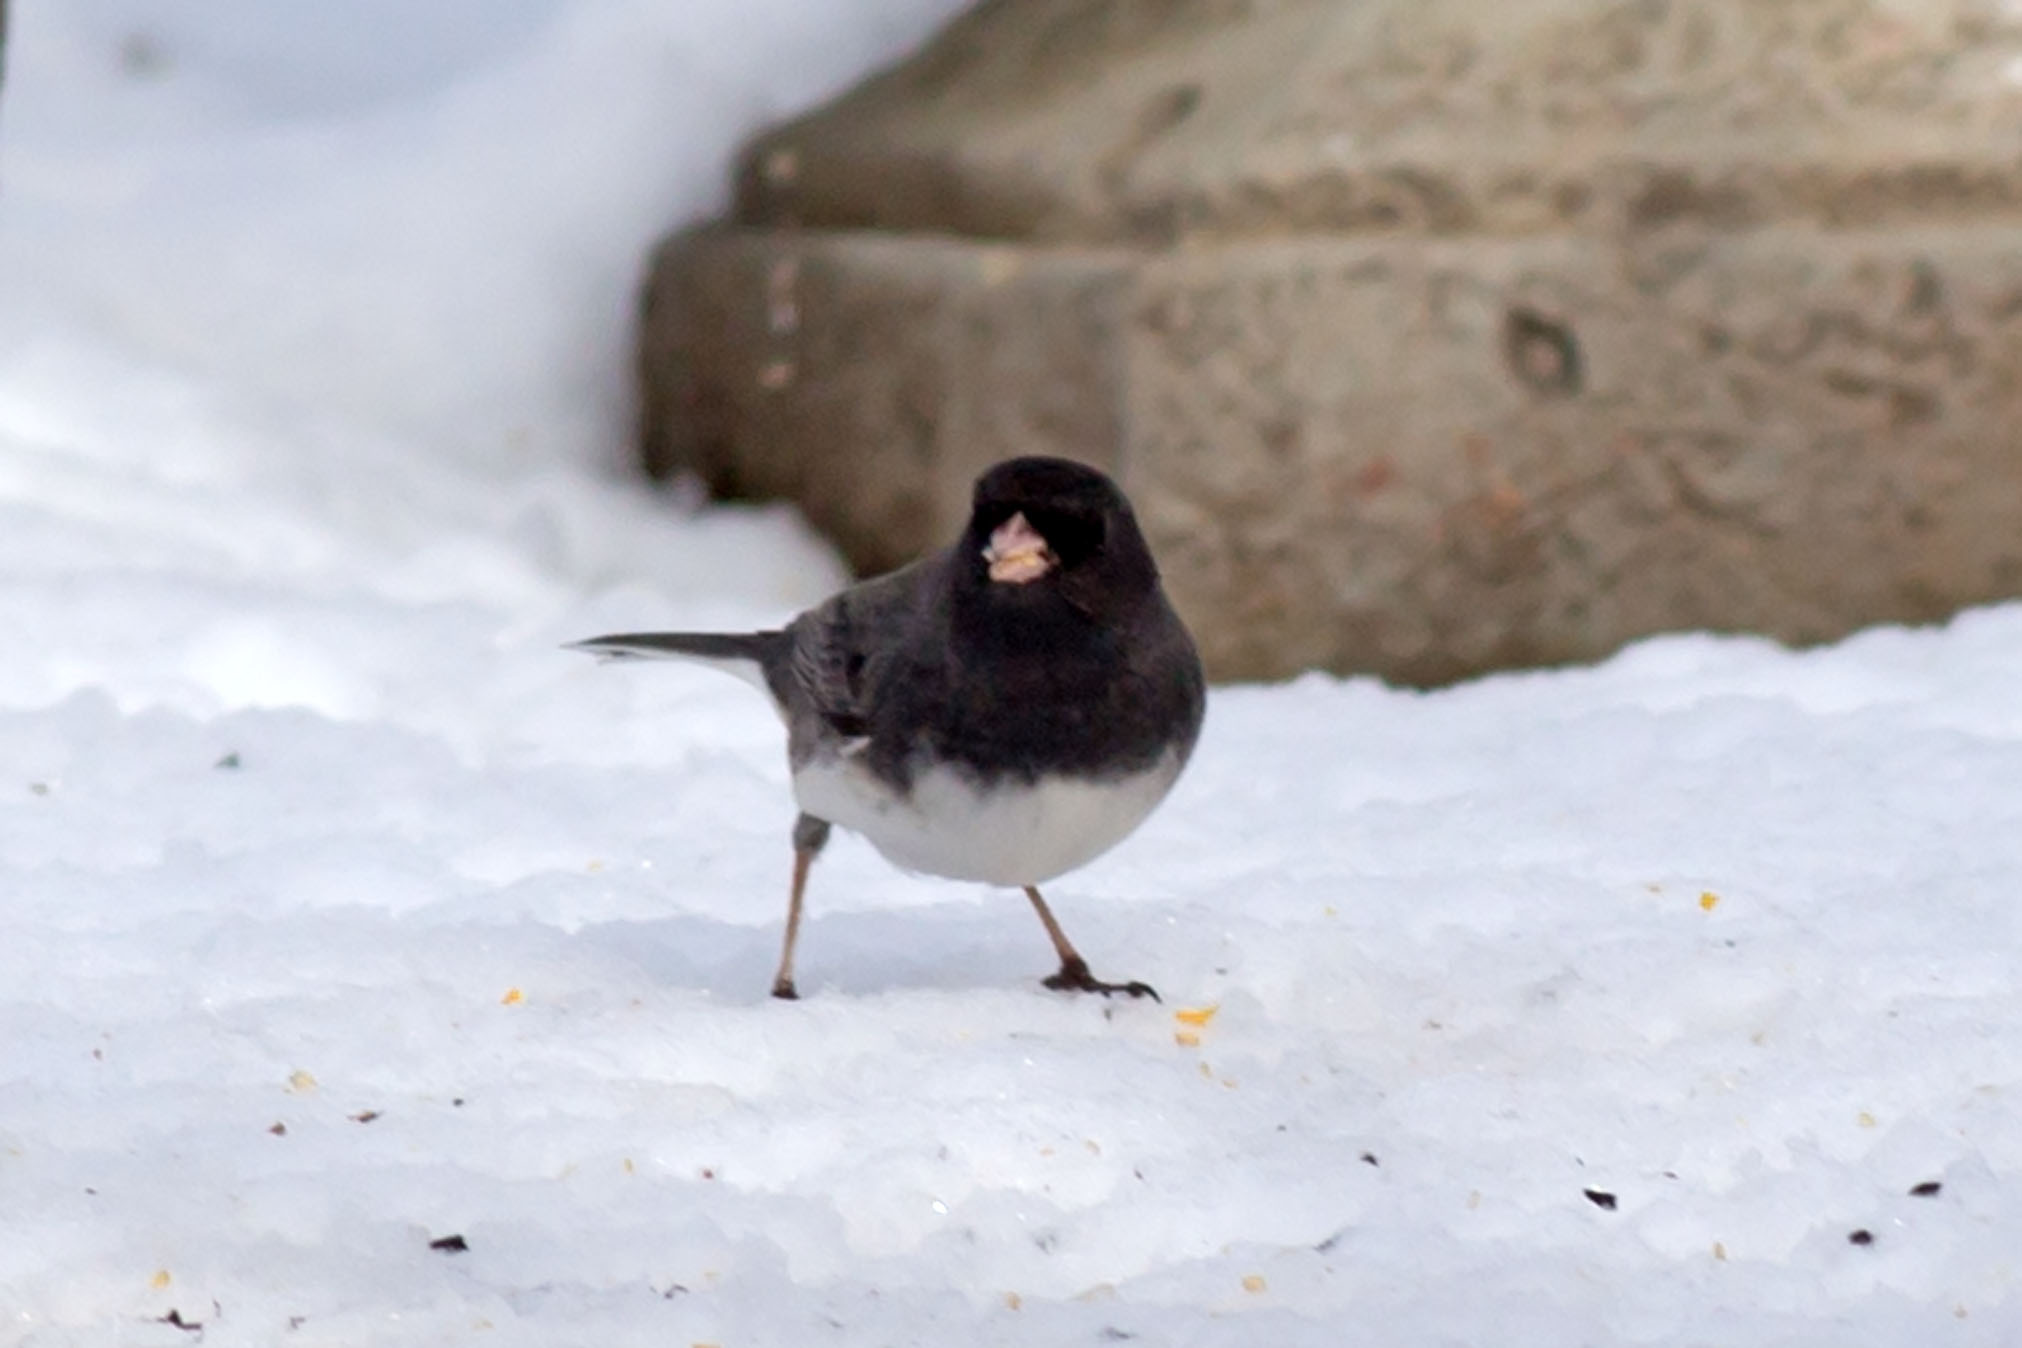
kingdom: Animalia
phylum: Chordata
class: Aves
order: Passeriformes
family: Passerellidae
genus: Junco
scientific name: Junco hyemalis
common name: Dark-eyed junco
